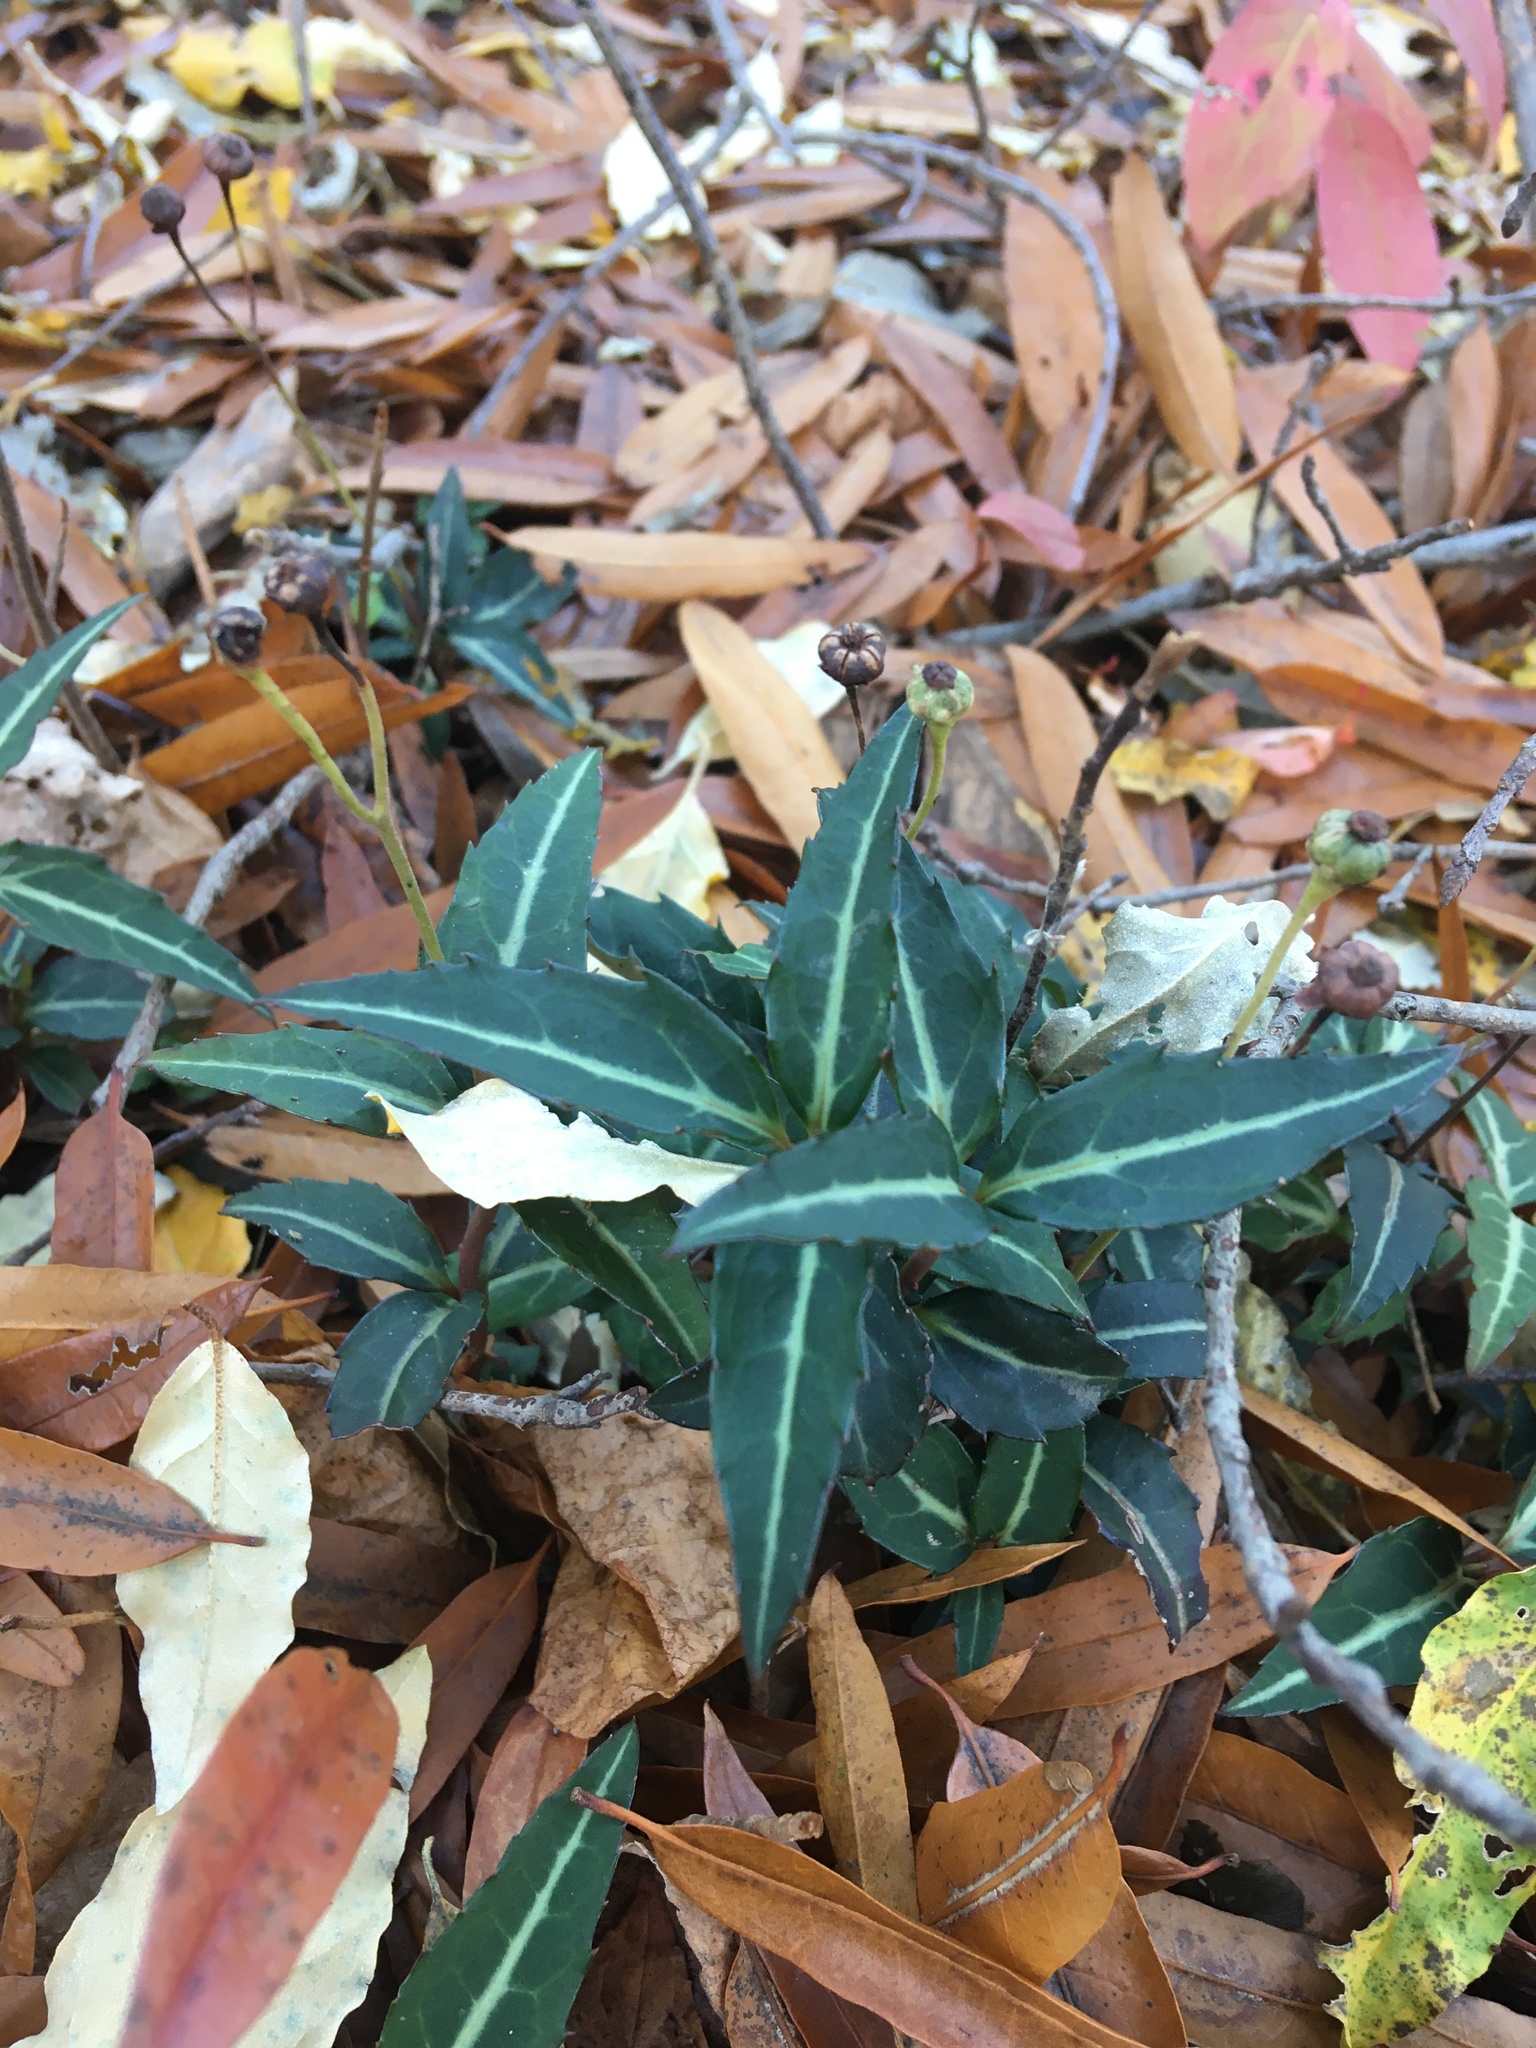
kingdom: Plantae
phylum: Tracheophyta
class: Magnoliopsida
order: Ericales
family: Ericaceae
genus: Chimaphila
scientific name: Chimaphila maculata
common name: Spotted pipsissewa
